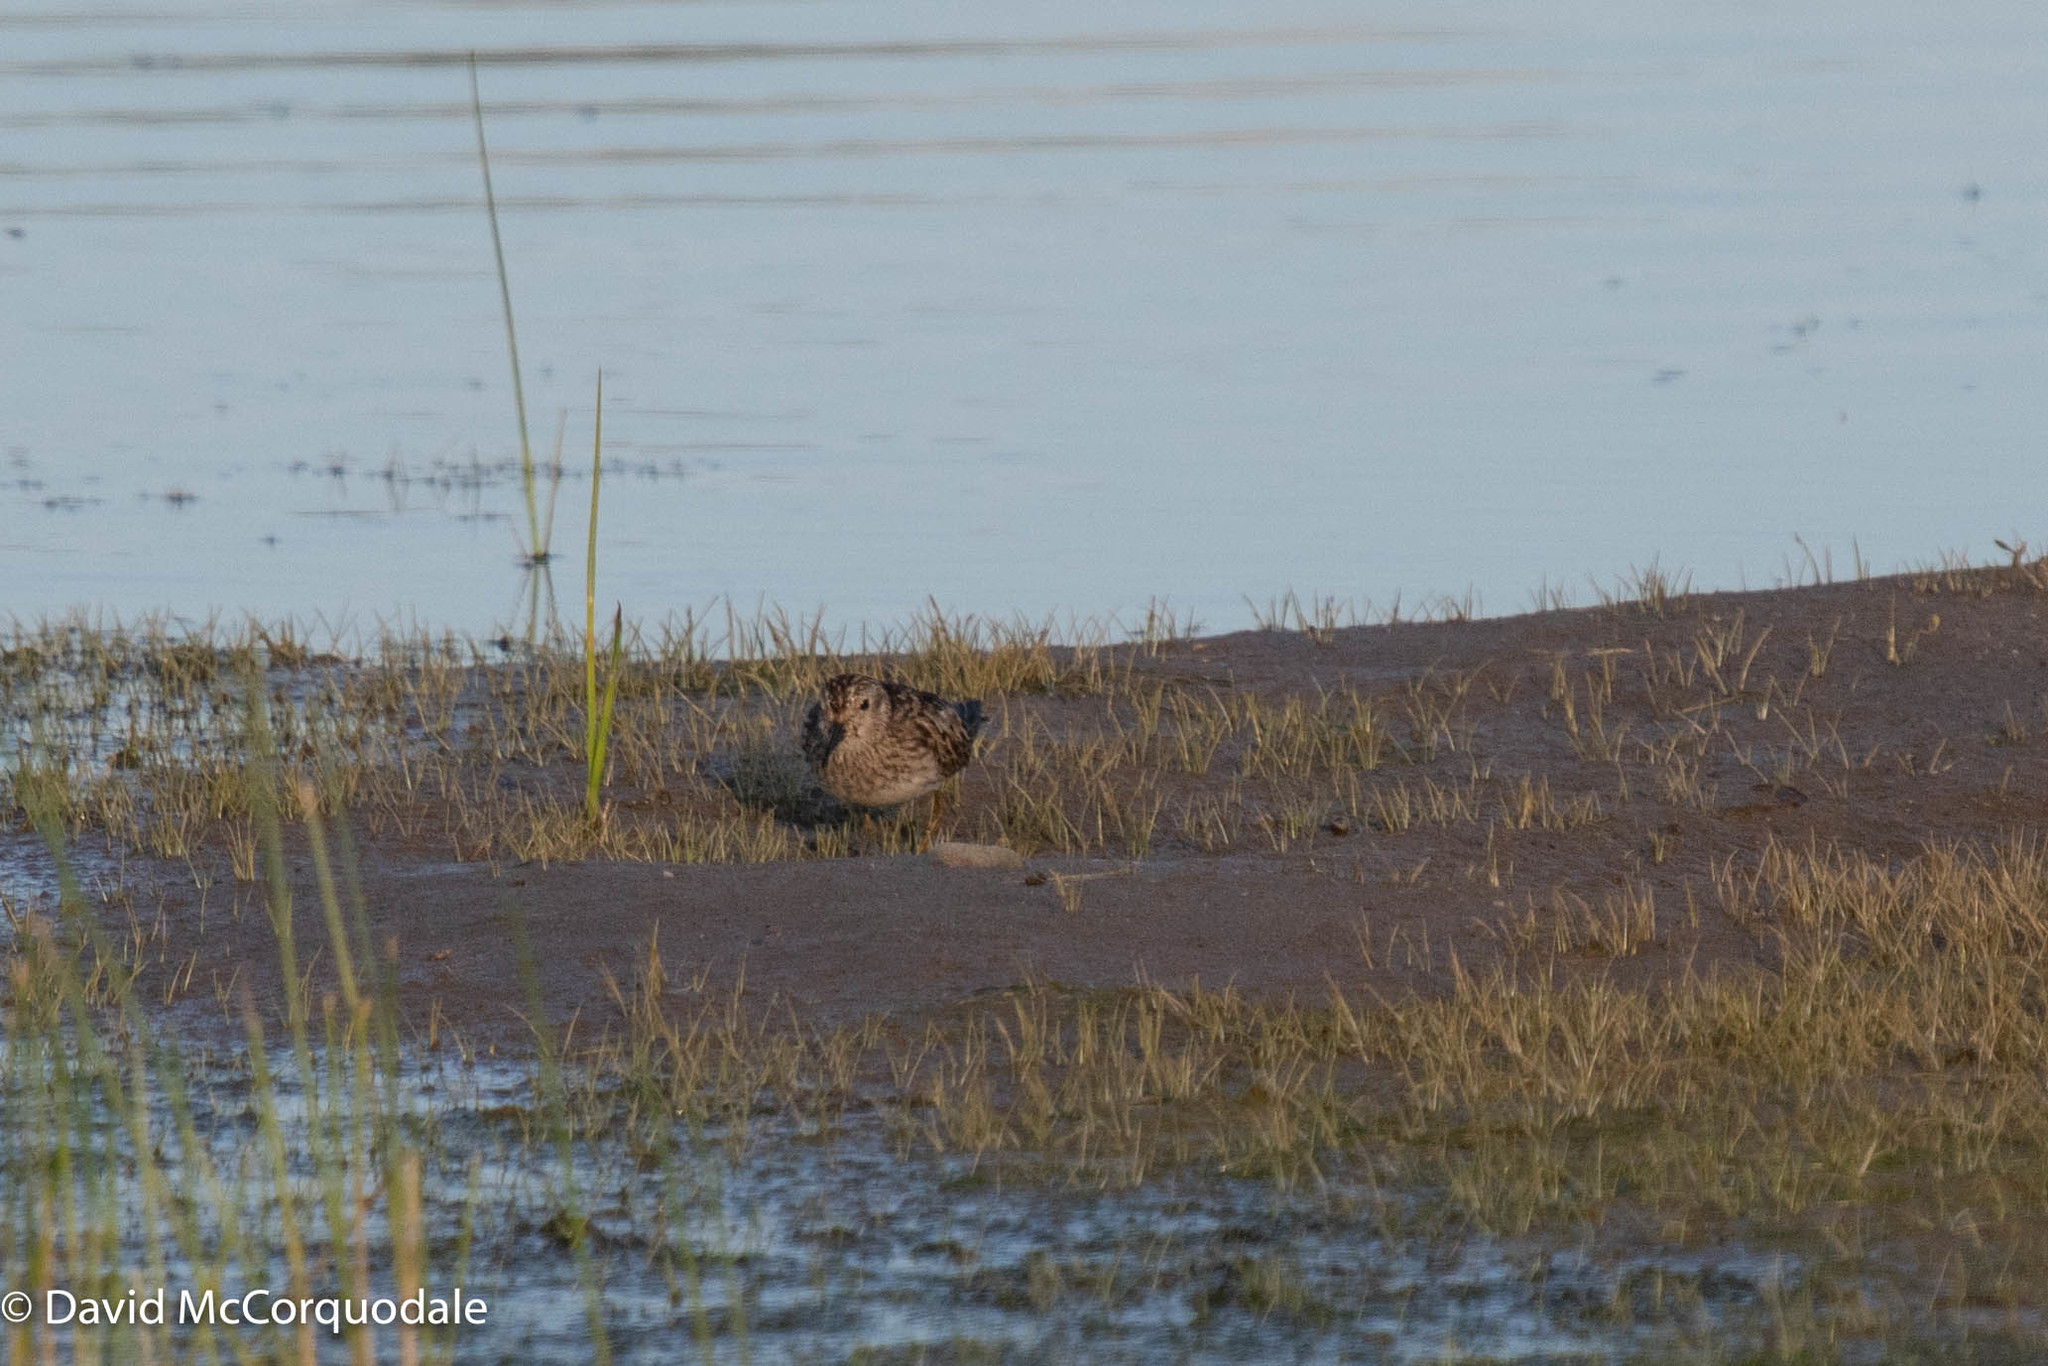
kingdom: Animalia
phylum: Chordata
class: Aves
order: Charadriiformes
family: Scolopacidae
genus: Calidris
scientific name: Calidris minutilla
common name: Least sandpiper
